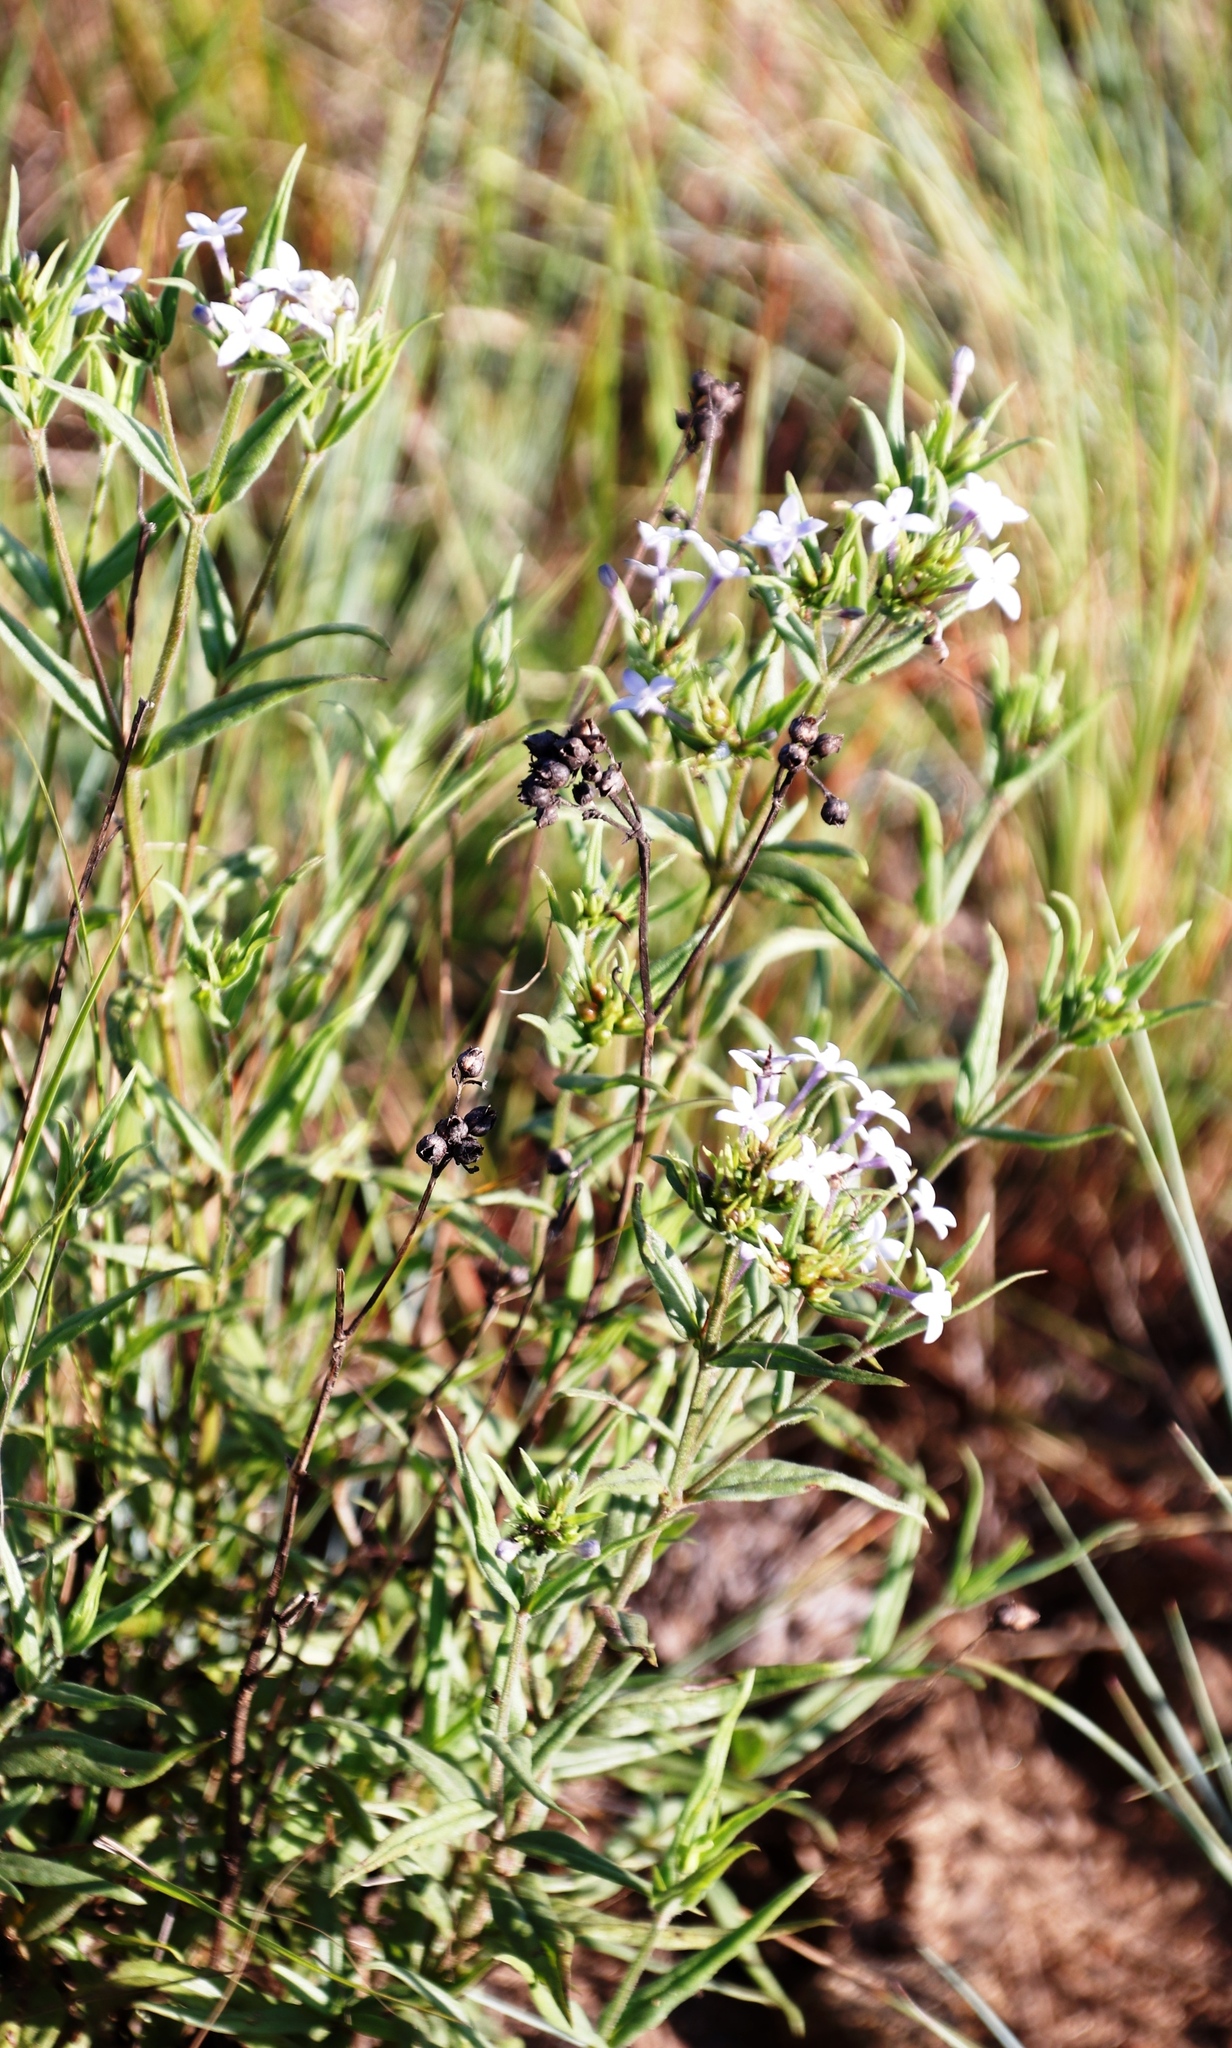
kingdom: Plantae
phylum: Tracheophyta
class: Magnoliopsida
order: Gentianales
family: Rubiaceae
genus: Conostomium
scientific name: Conostomium natalense
